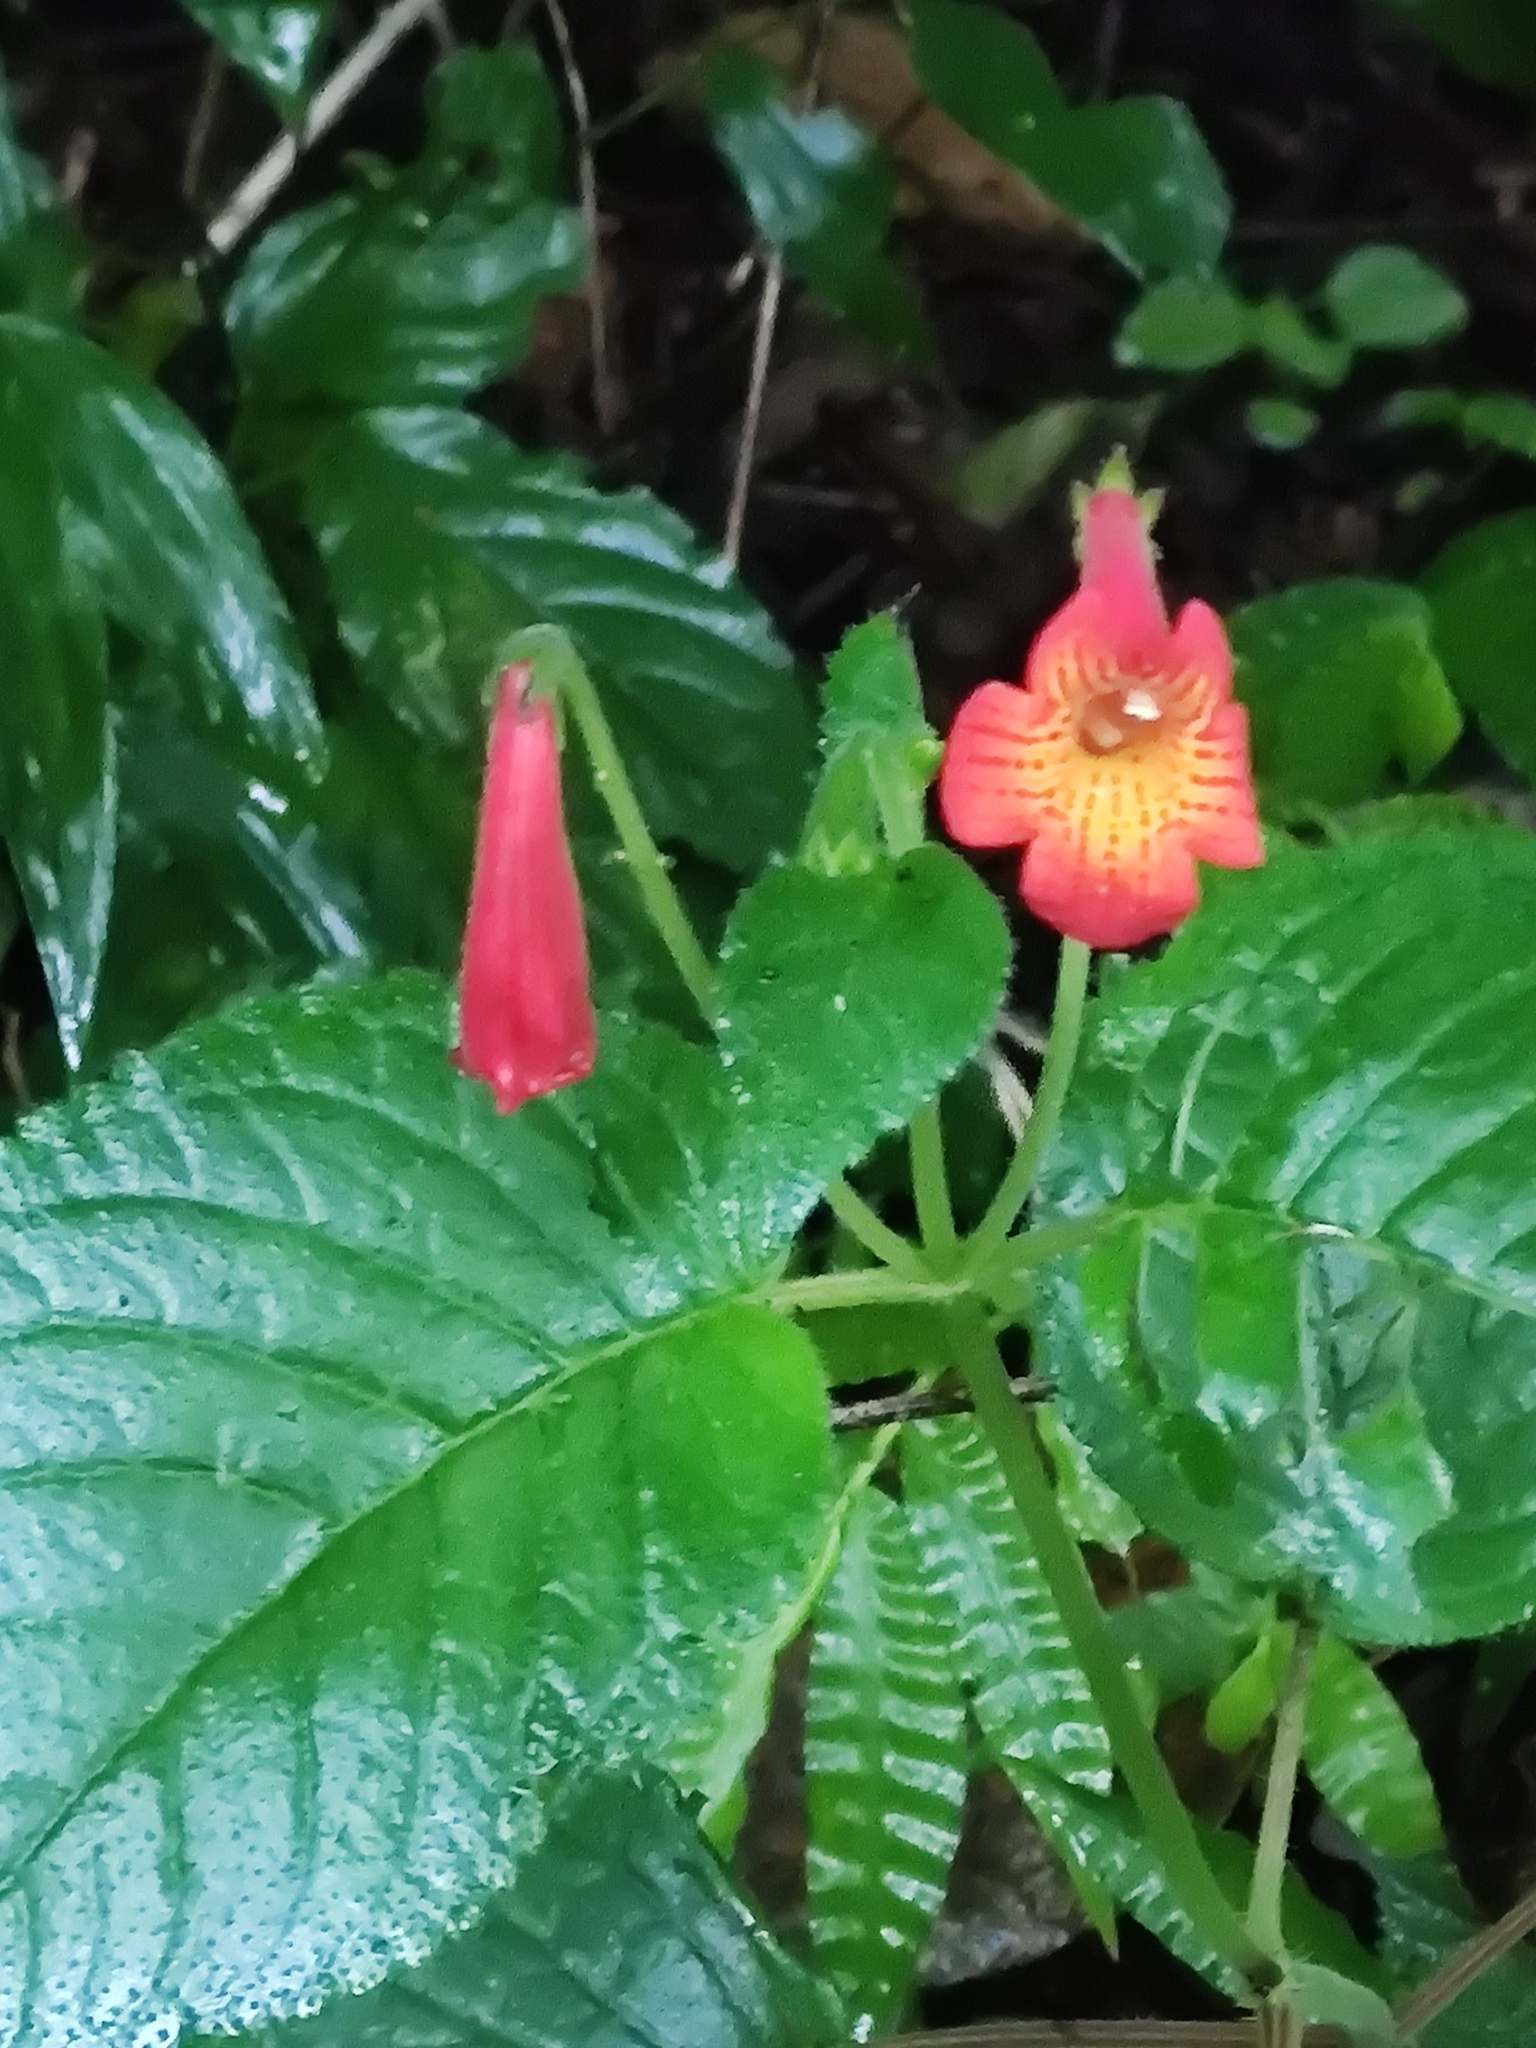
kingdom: Plantae
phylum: Tracheophyta
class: Magnoliopsida
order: Lamiales
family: Gesneriaceae
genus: Achimenes
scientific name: Achimenes pedunculata
